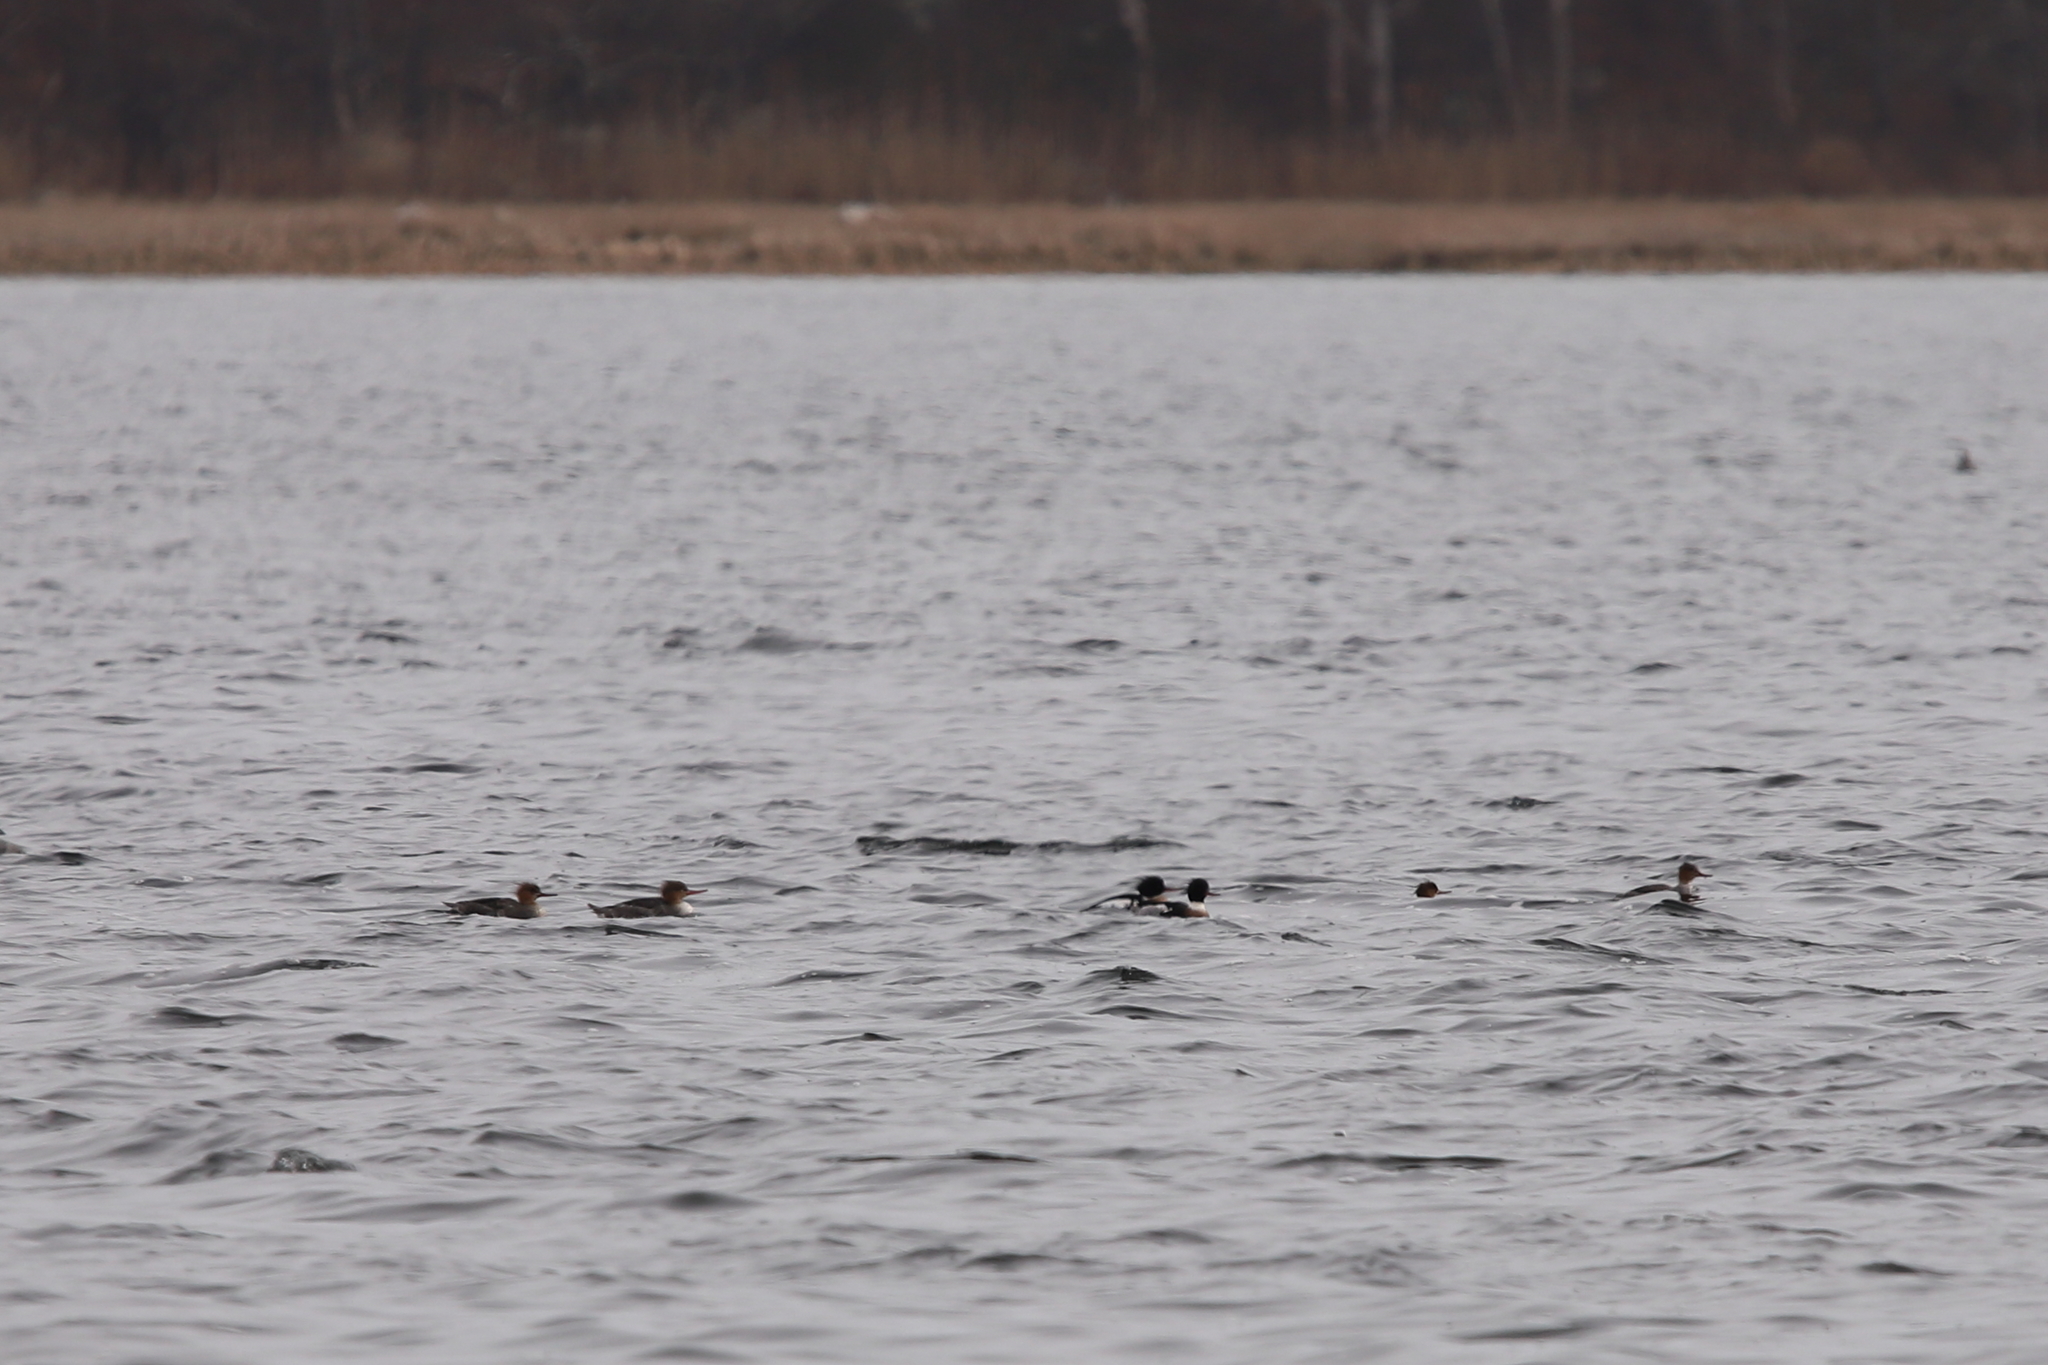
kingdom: Animalia
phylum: Chordata
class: Aves
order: Anseriformes
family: Anatidae
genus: Mergus
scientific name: Mergus serrator
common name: Red-breasted merganser
